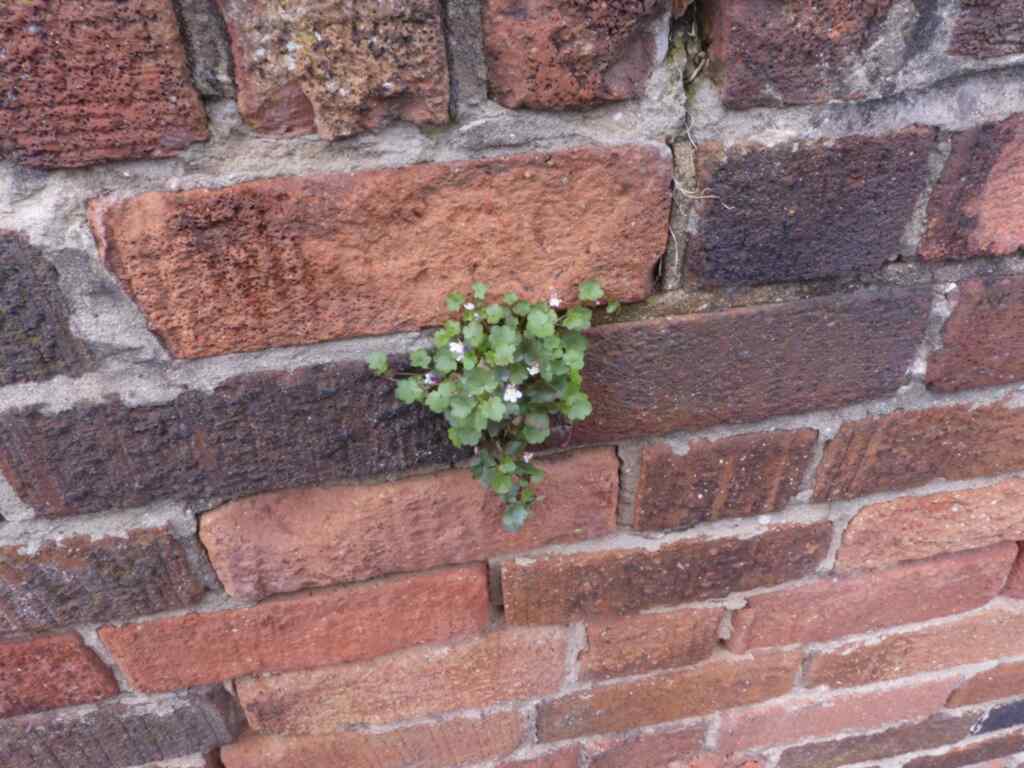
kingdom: Plantae
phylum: Tracheophyta
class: Magnoliopsida
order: Lamiales
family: Plantaginaceae
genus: Cymbalaria
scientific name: Cymbalaria muralis
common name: Ivy-leaved toadflax
